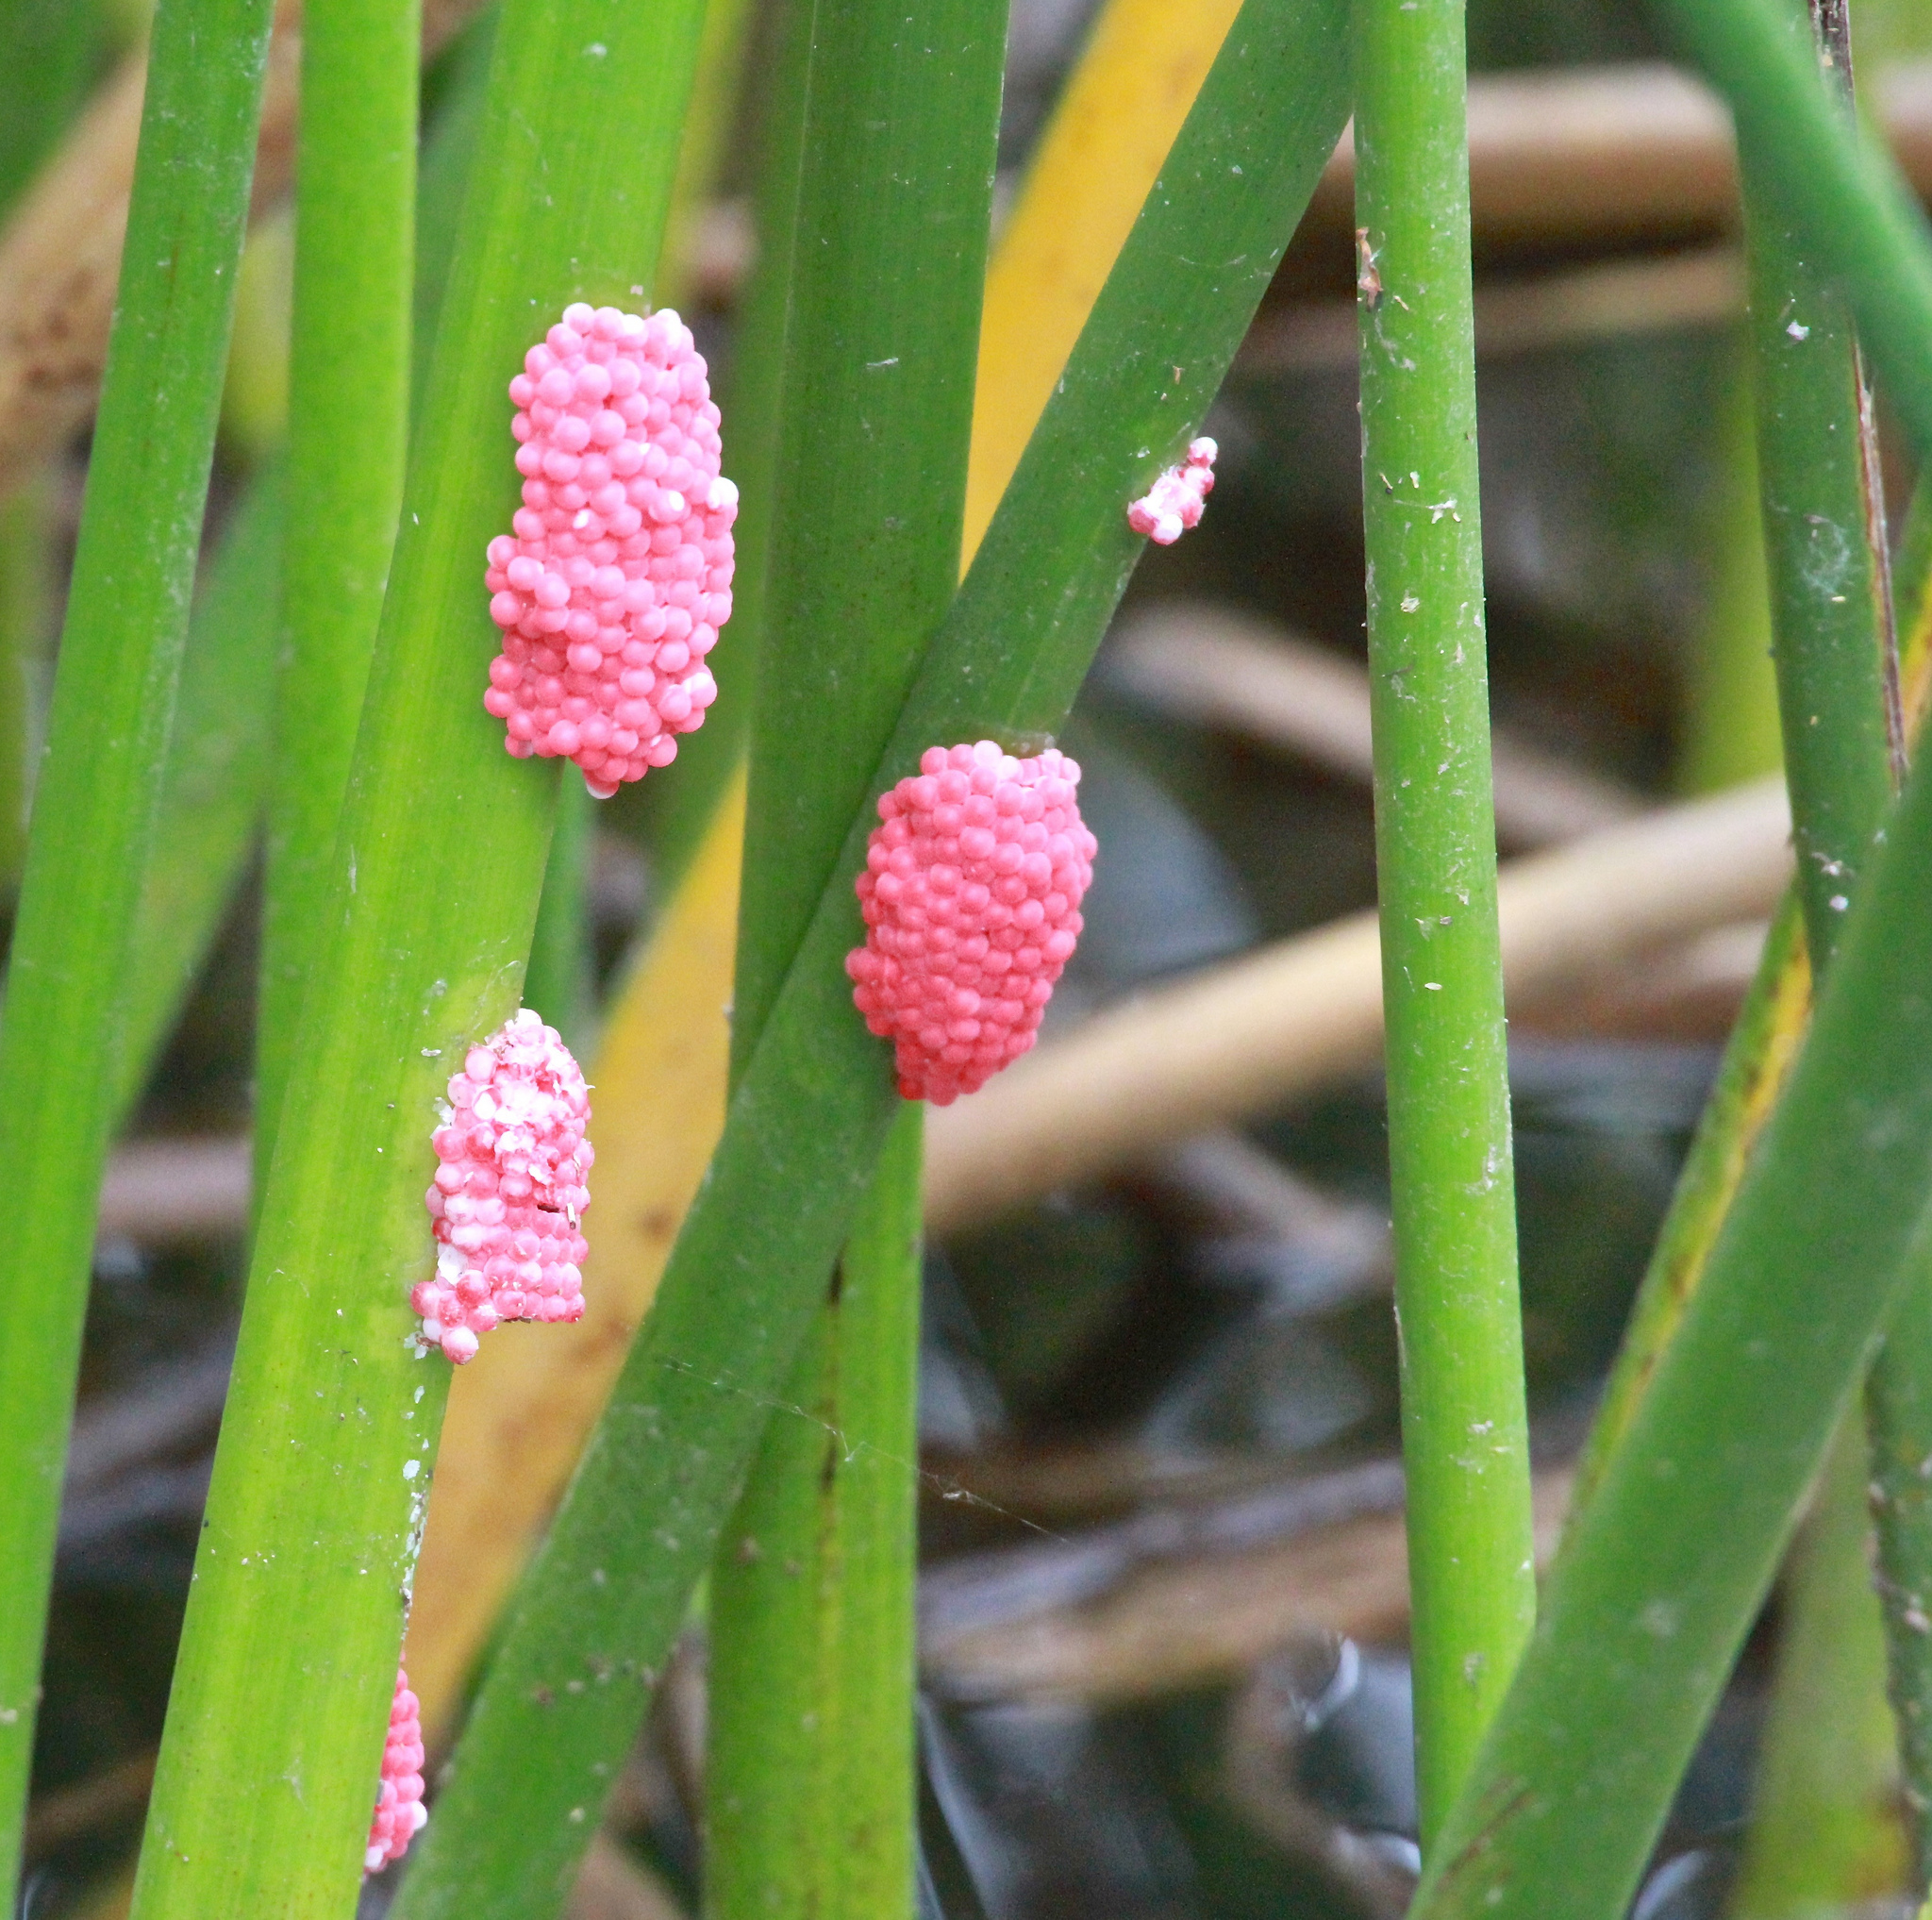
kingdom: Animalia
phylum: Mollusca
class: Gastropoda
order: Architaenioglossa
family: Ampullariidae
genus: Pomacea
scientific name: Pomacea canaliculata
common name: Channeled applesnail
